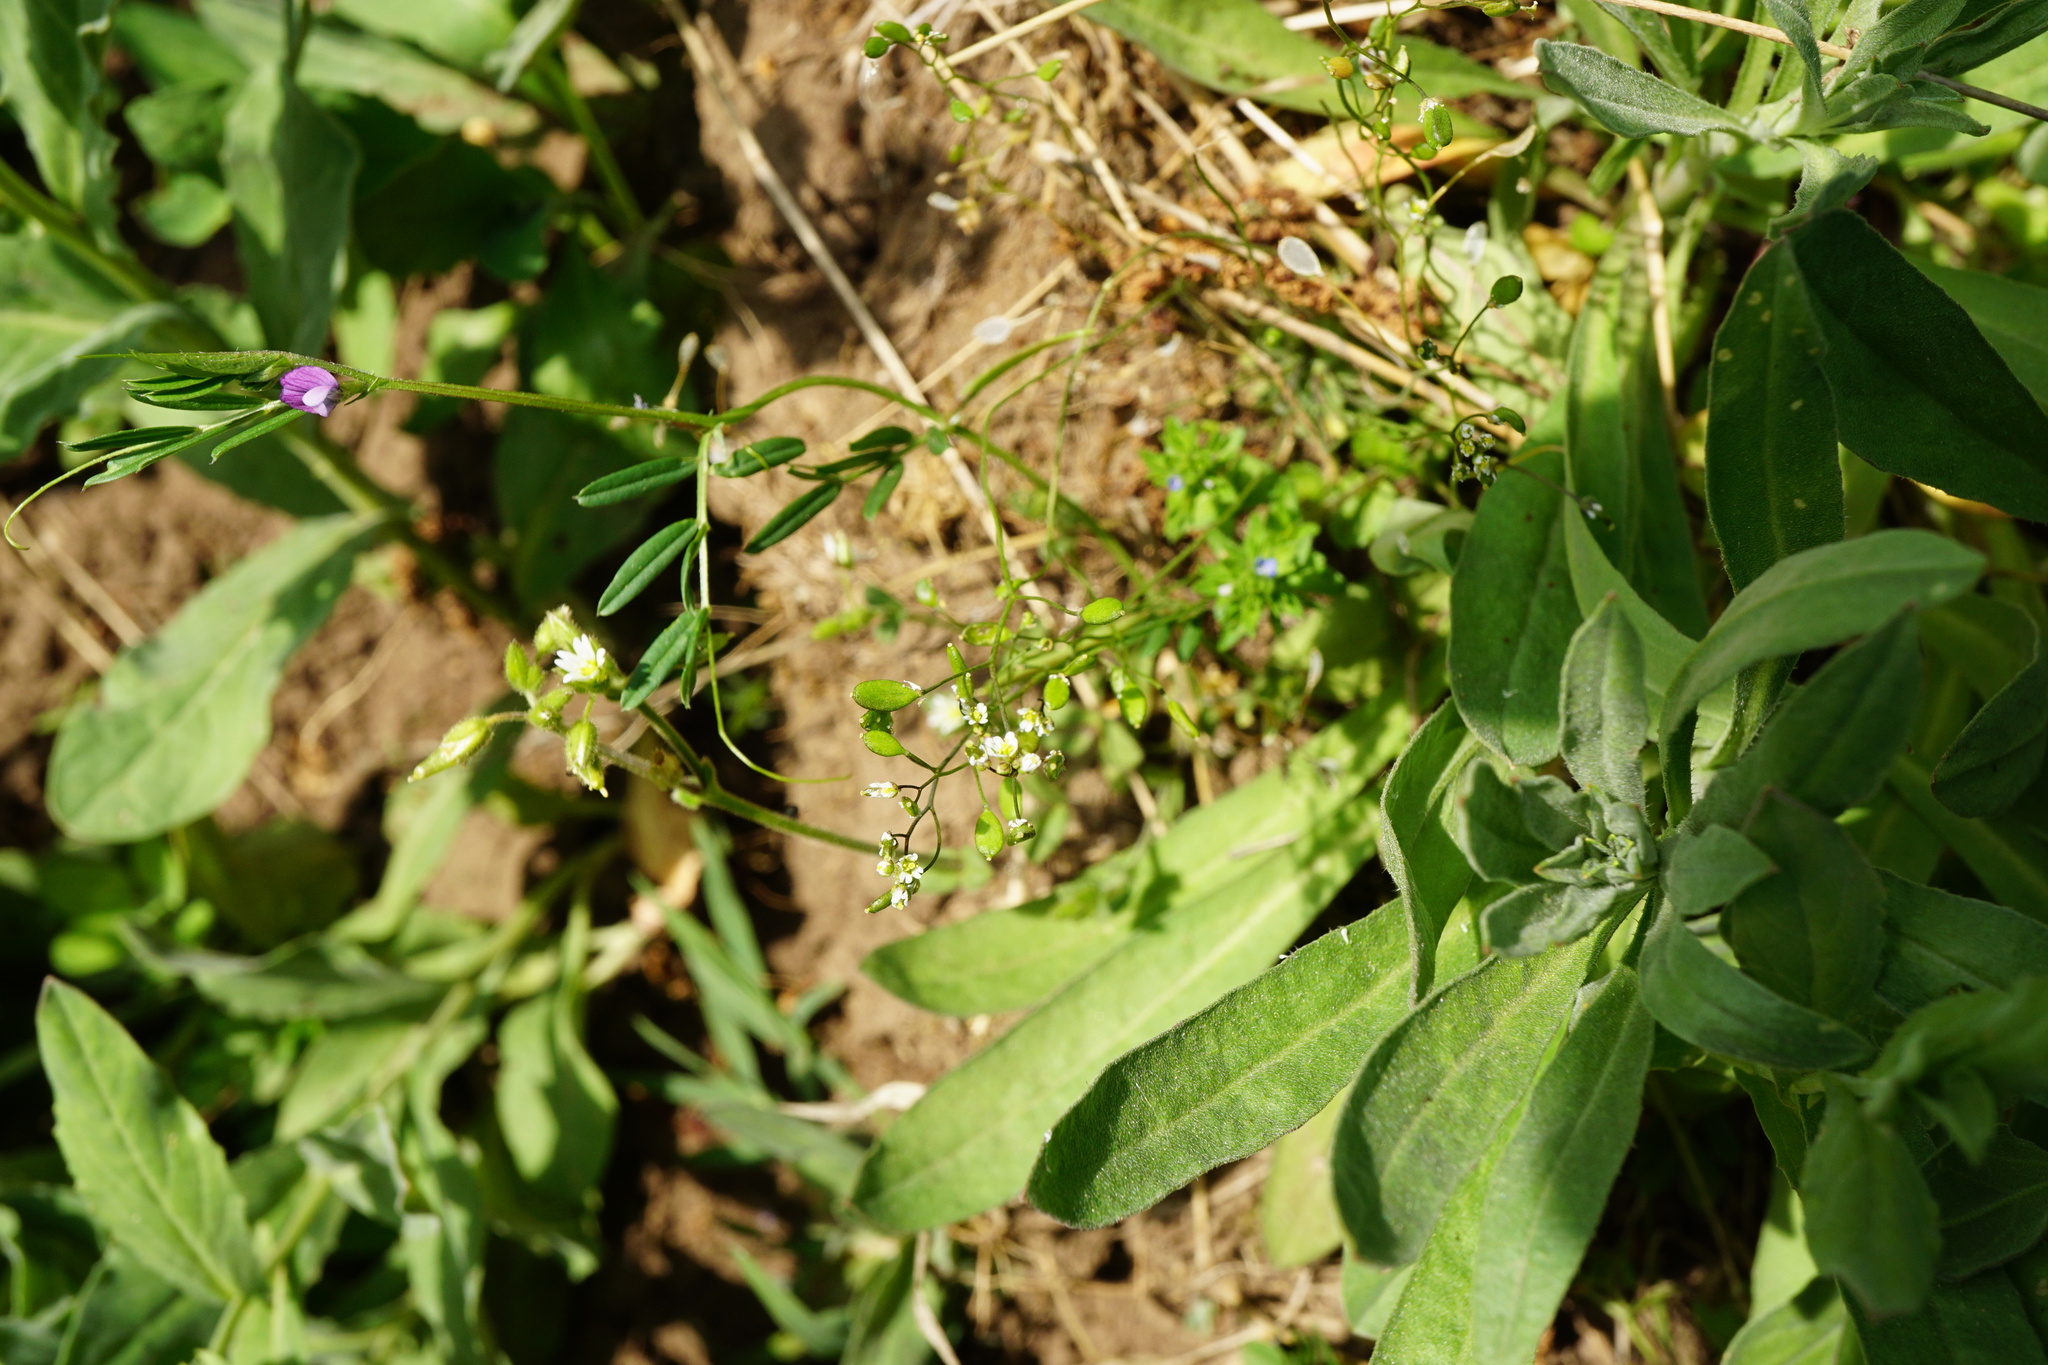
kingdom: Plantae
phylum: Tracheophyta
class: Magnoliopsida
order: Brassicales
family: Brassicaceae
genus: Draba
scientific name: Draba verna
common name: Spring draba
